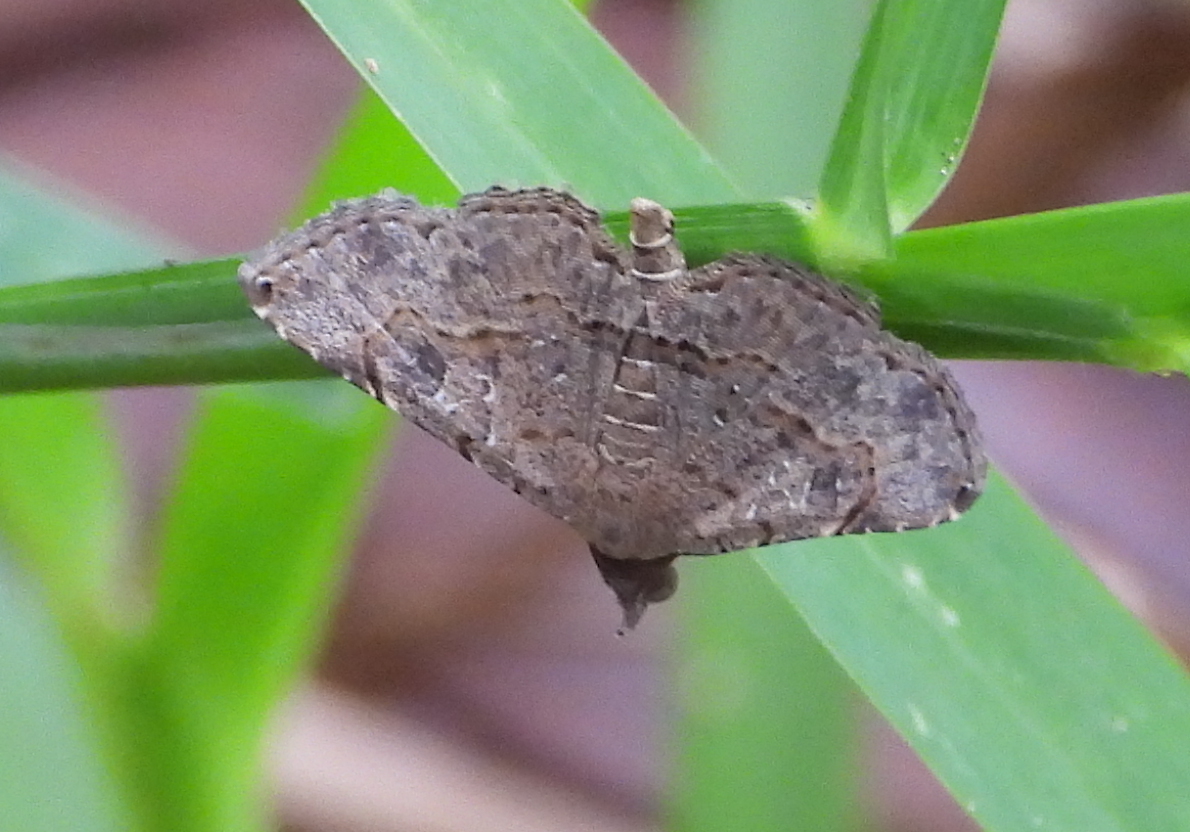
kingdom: Animalia
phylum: Arthropoda
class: Insecta
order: Lepidoptera
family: Erebidae
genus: Rhesala
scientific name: Rhesala moestalis
